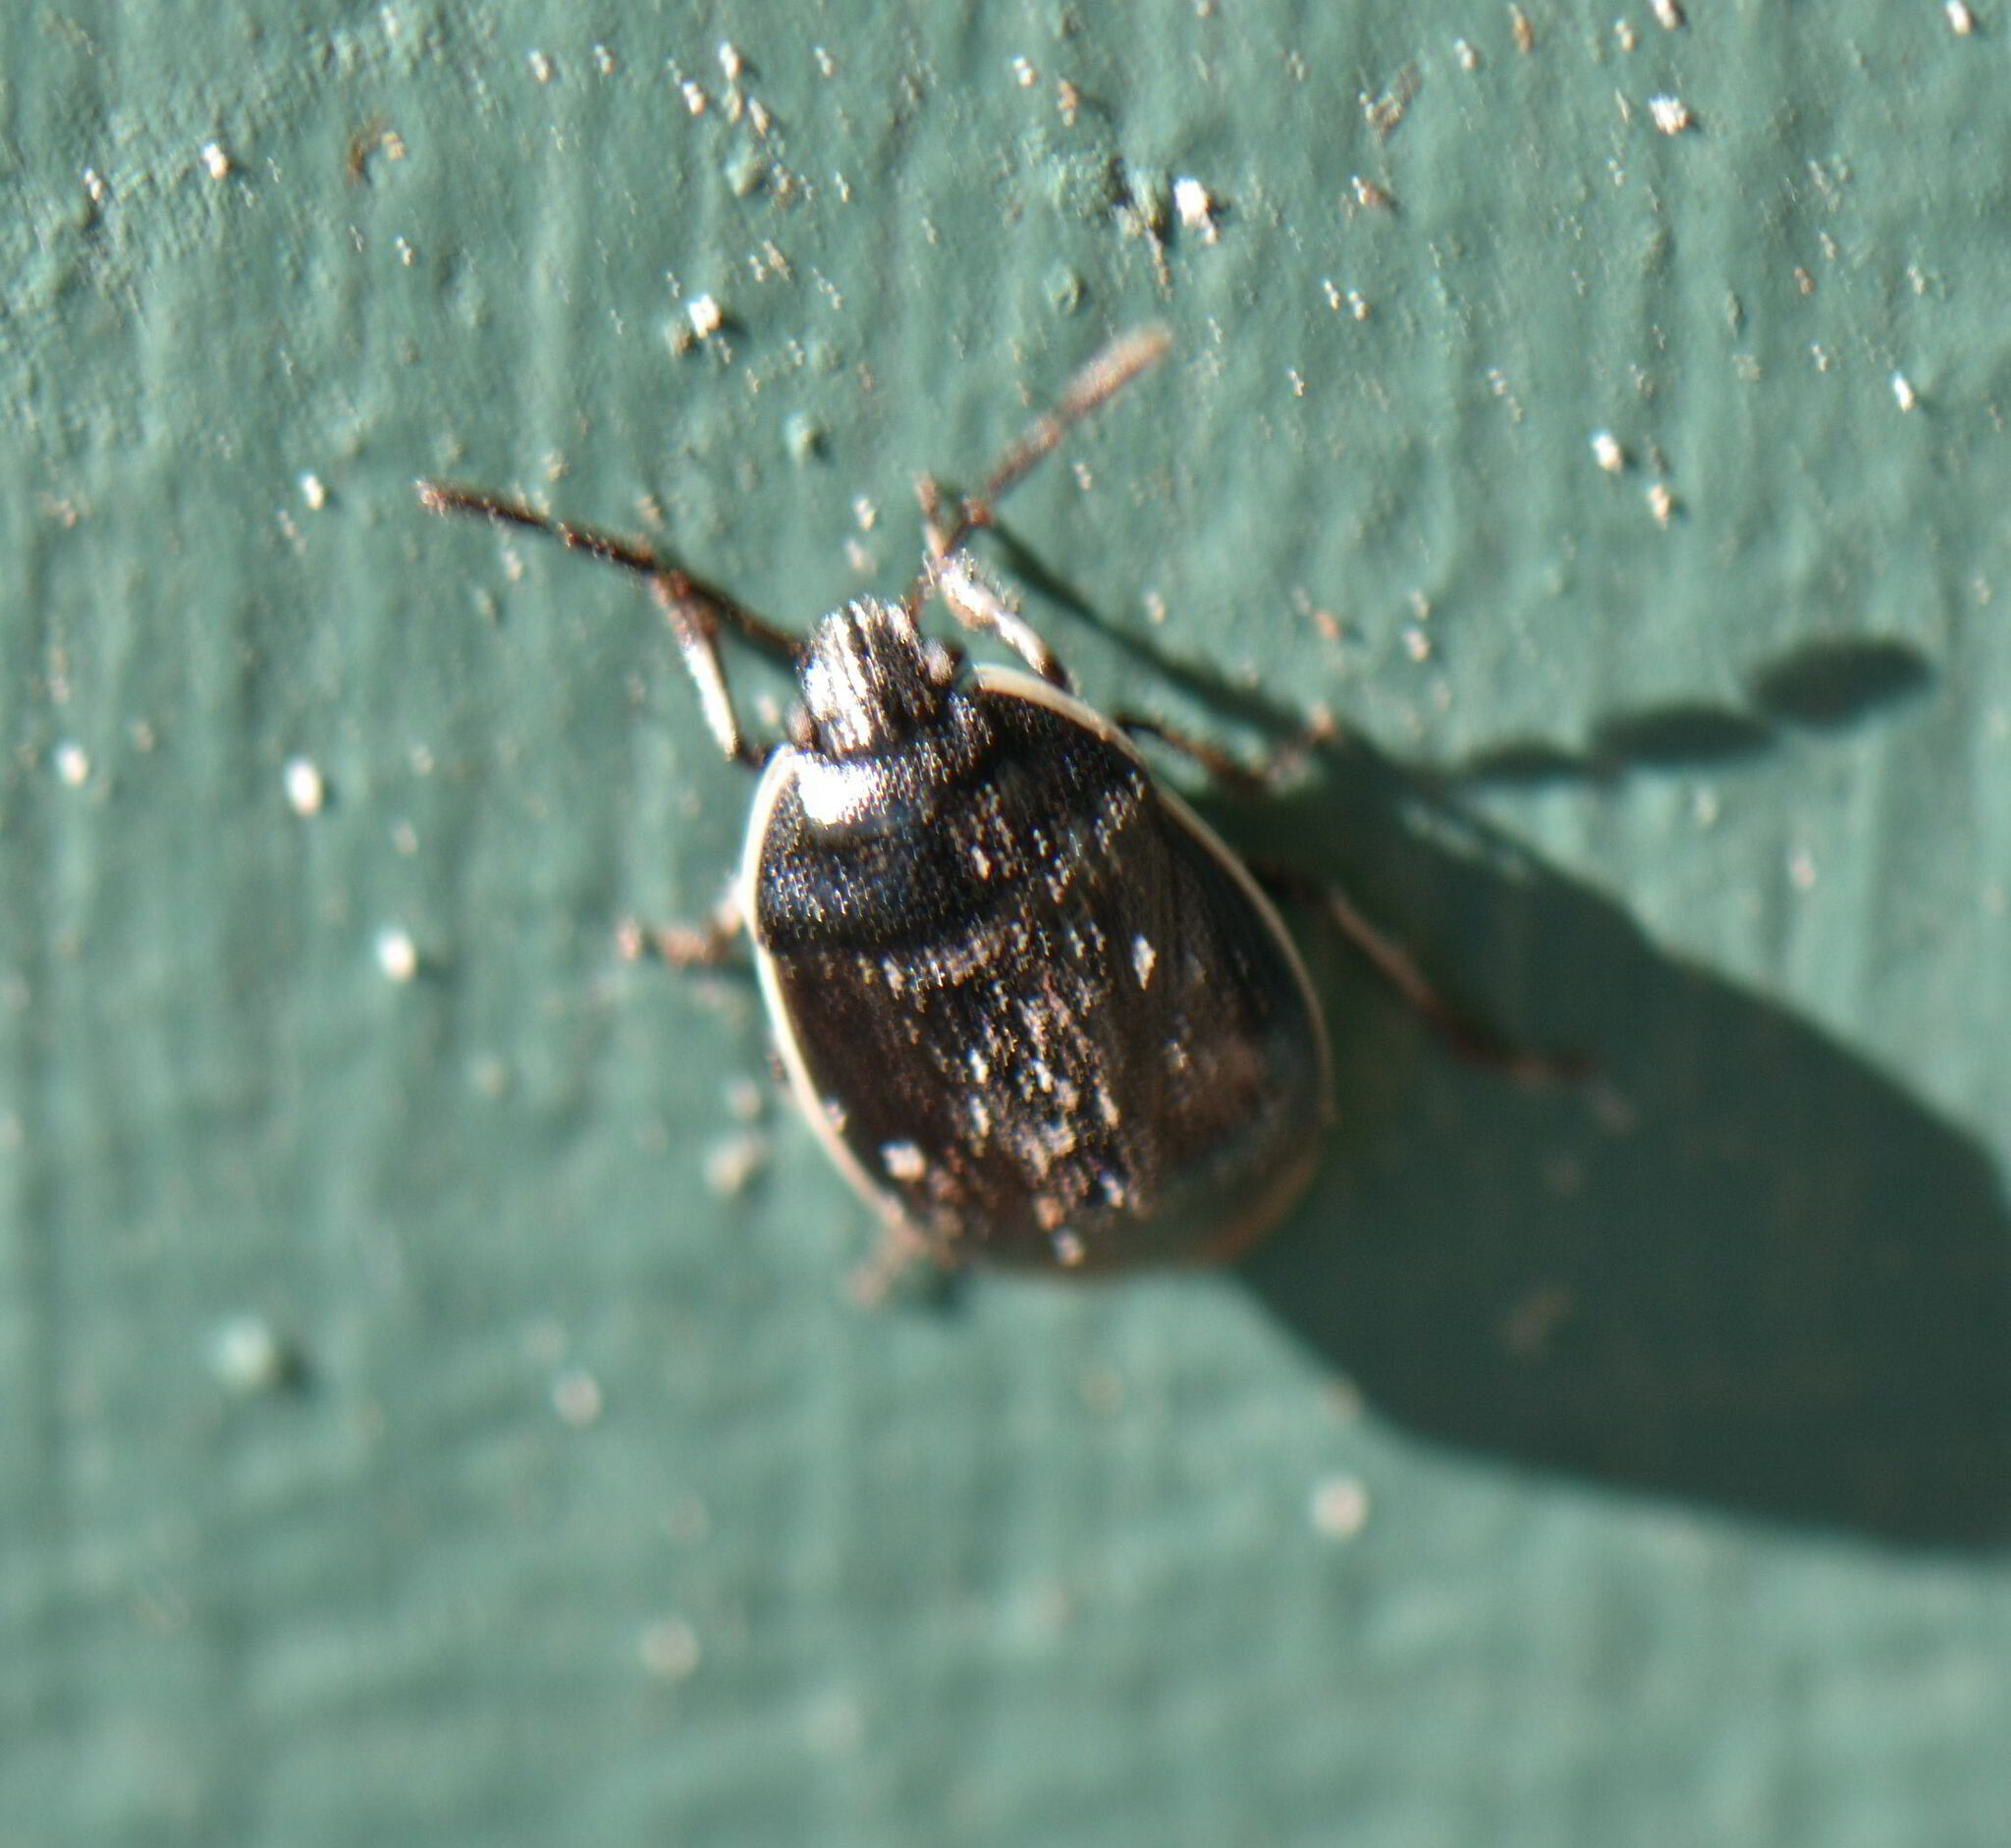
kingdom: Animalia
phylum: Arthropoda
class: Insecta
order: Hemiptera
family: Cydnidae
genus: Sehirus
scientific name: Sehirus cinctus
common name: White-margined burrower bug
